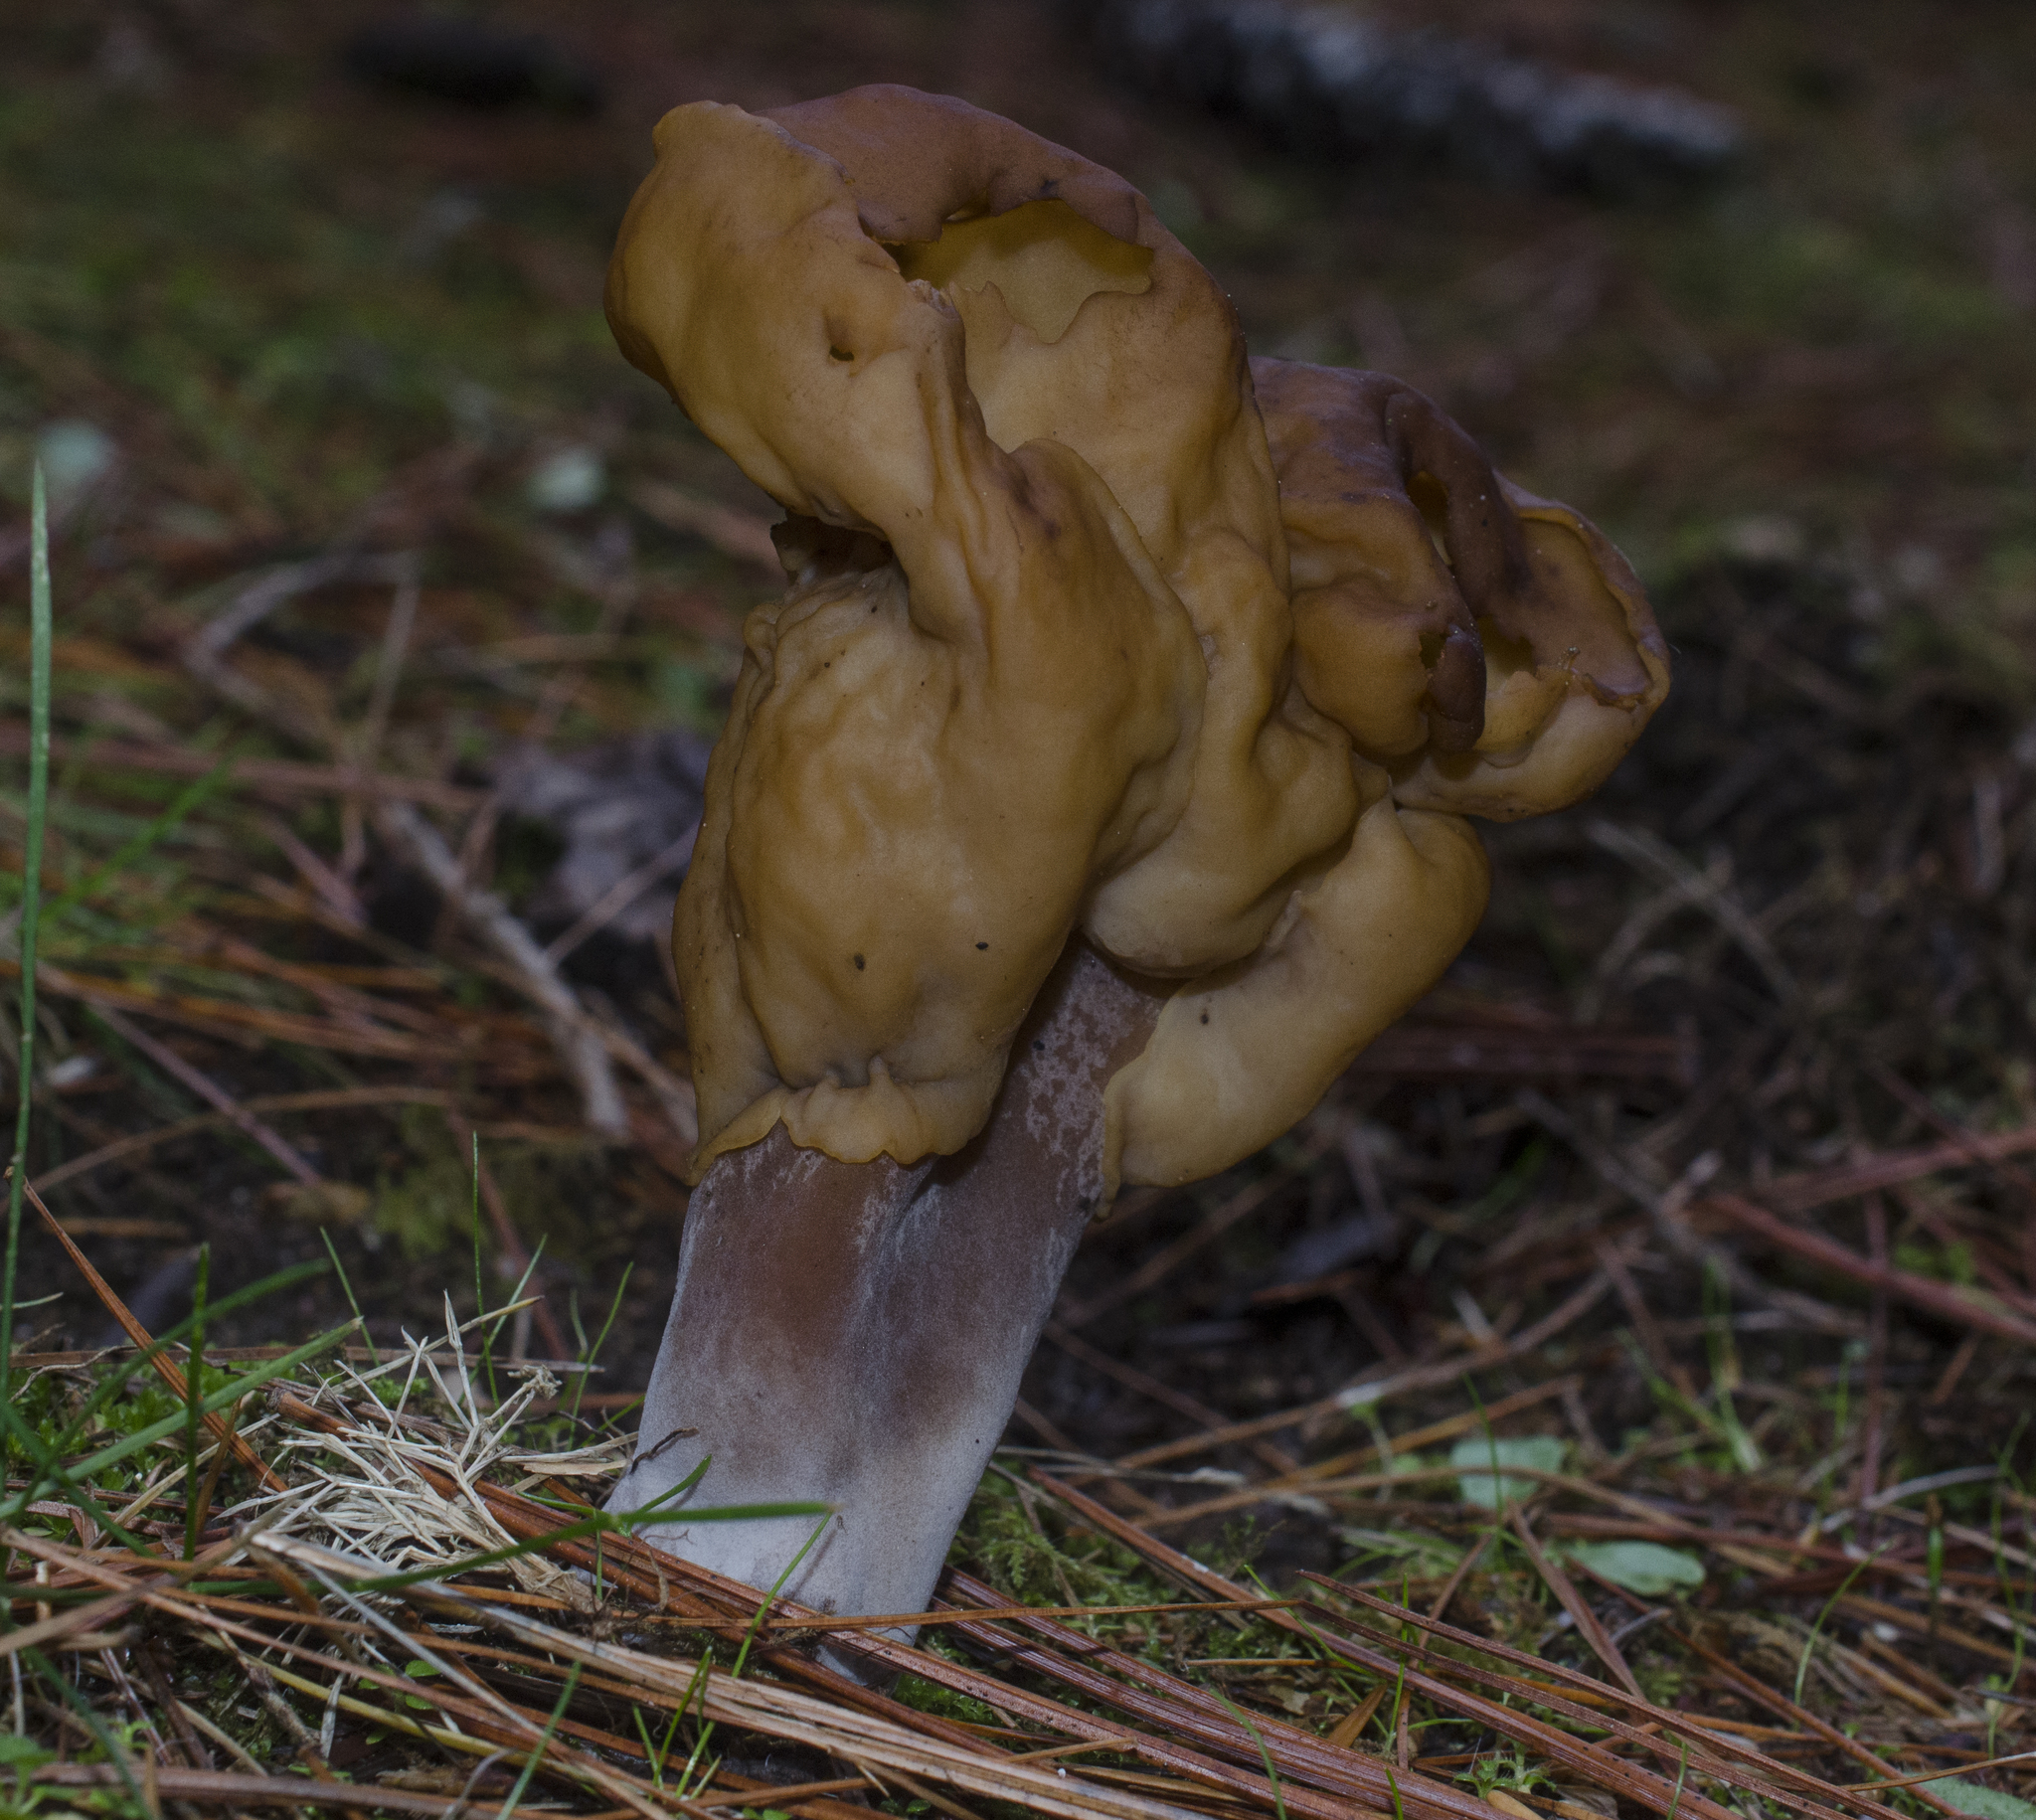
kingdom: Fungi
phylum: Ascomycota
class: Pezizomycetes
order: Pezizales
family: Discinaceae
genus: Gyromitra
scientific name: Gyromitra infula
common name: Pouched false morel
